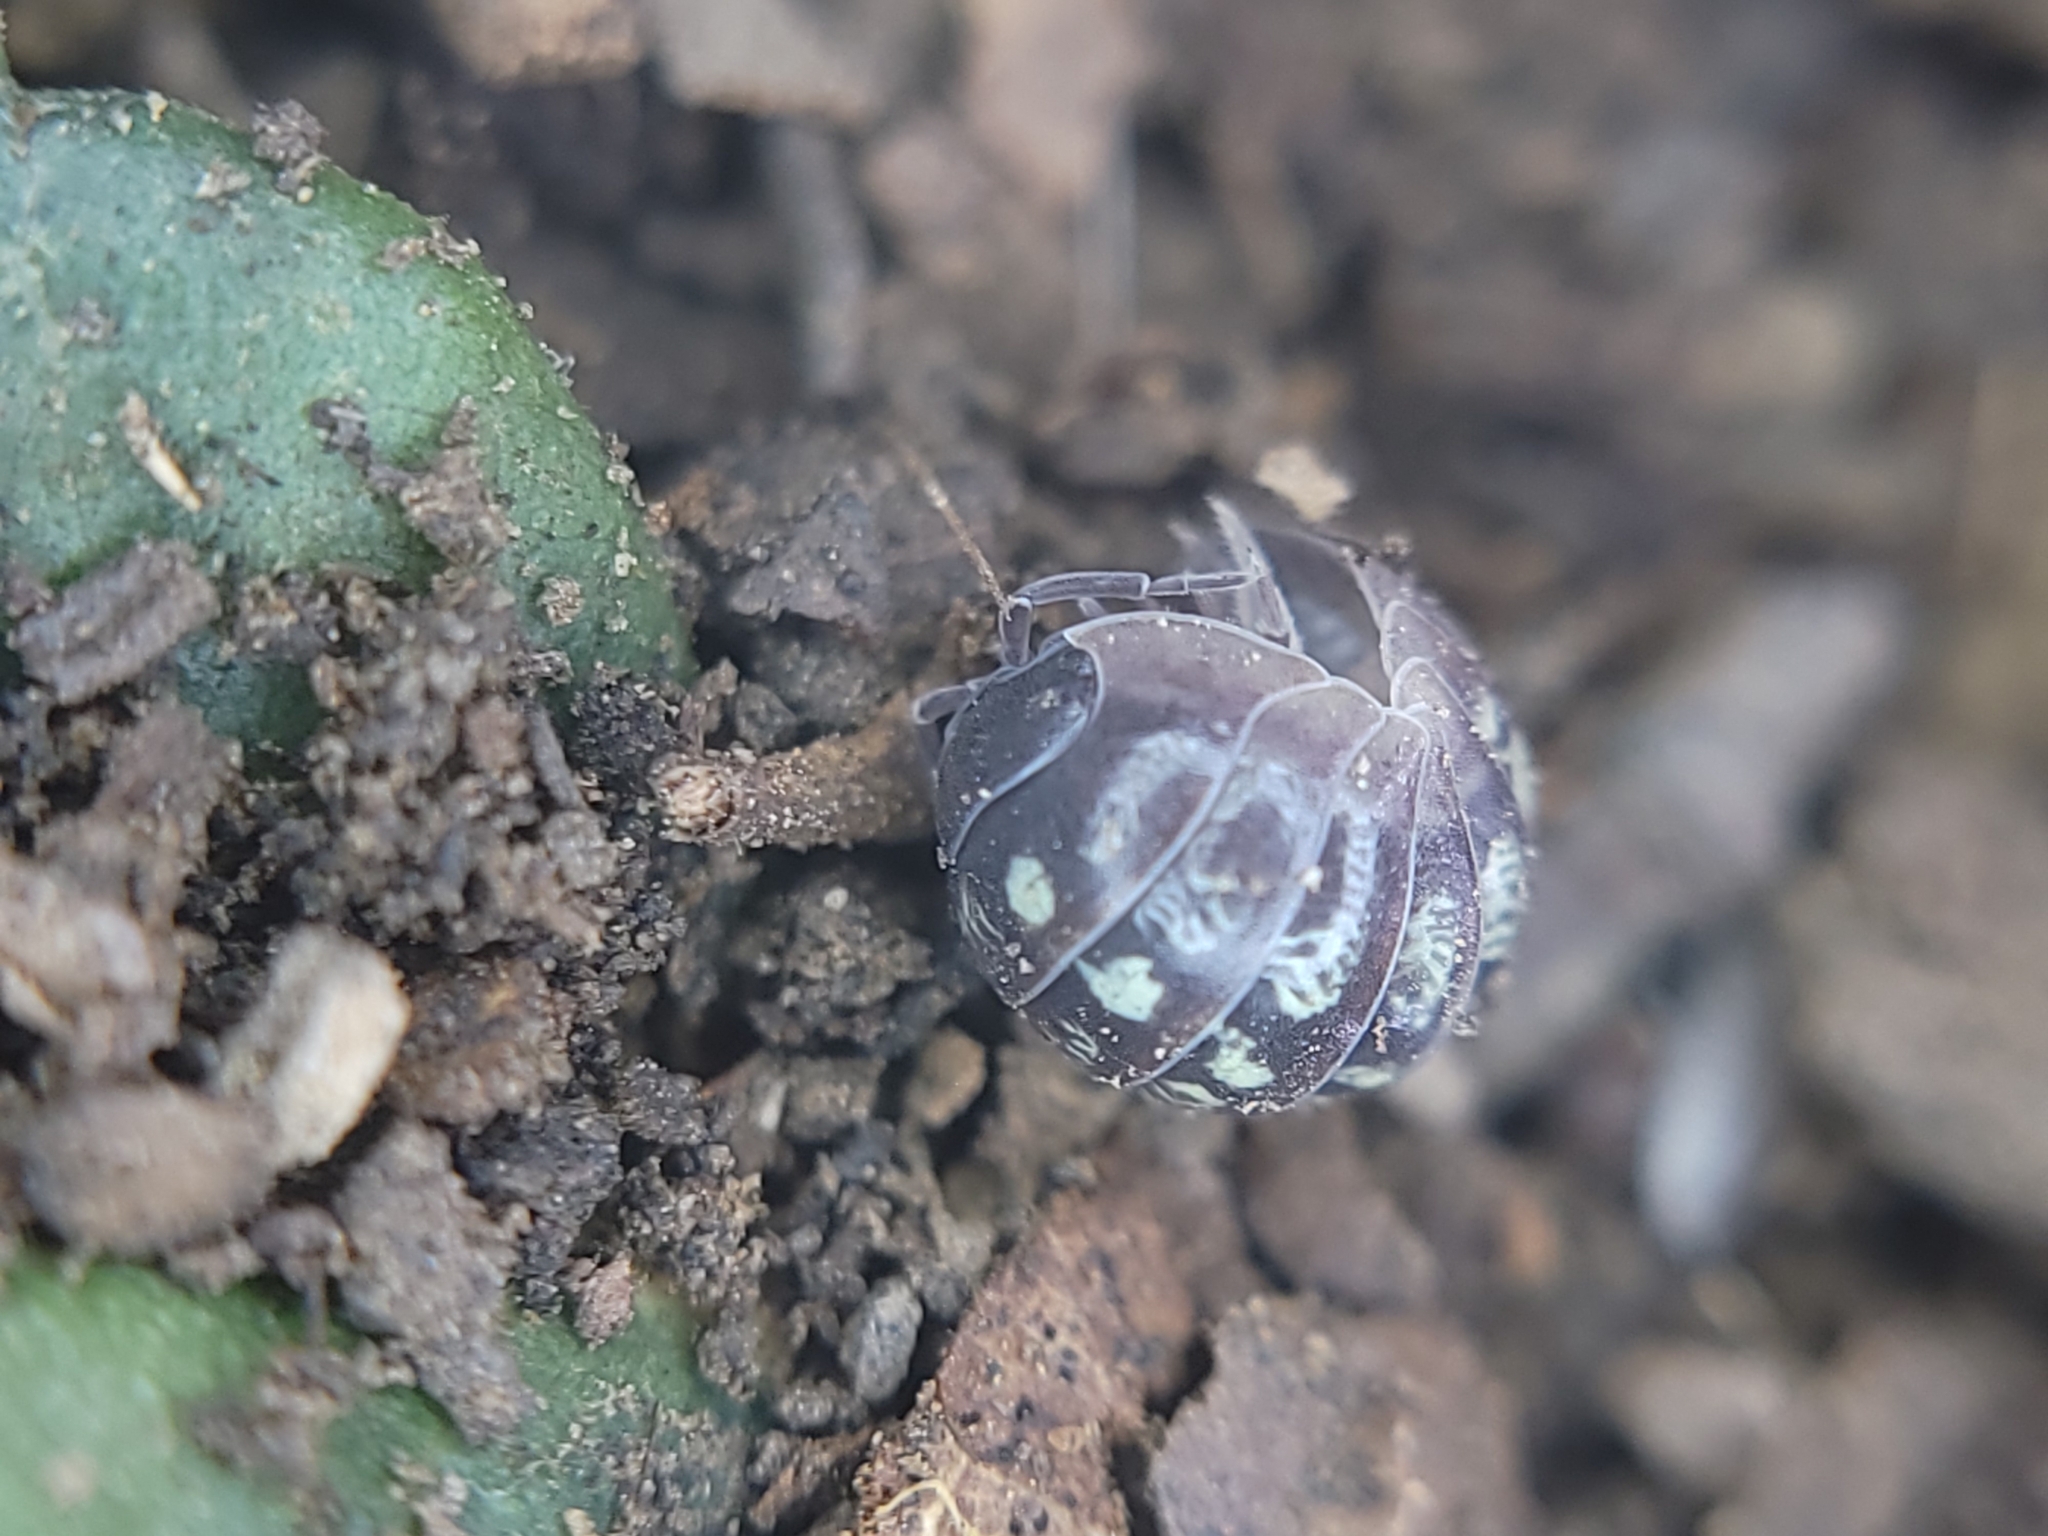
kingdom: Animalia
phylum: Arthropoda
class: Malacostraca
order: Isopoda
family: Armadillidiidae
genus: Armadillidium
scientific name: Armadillidium vulgare
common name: Common pill woodlouse
